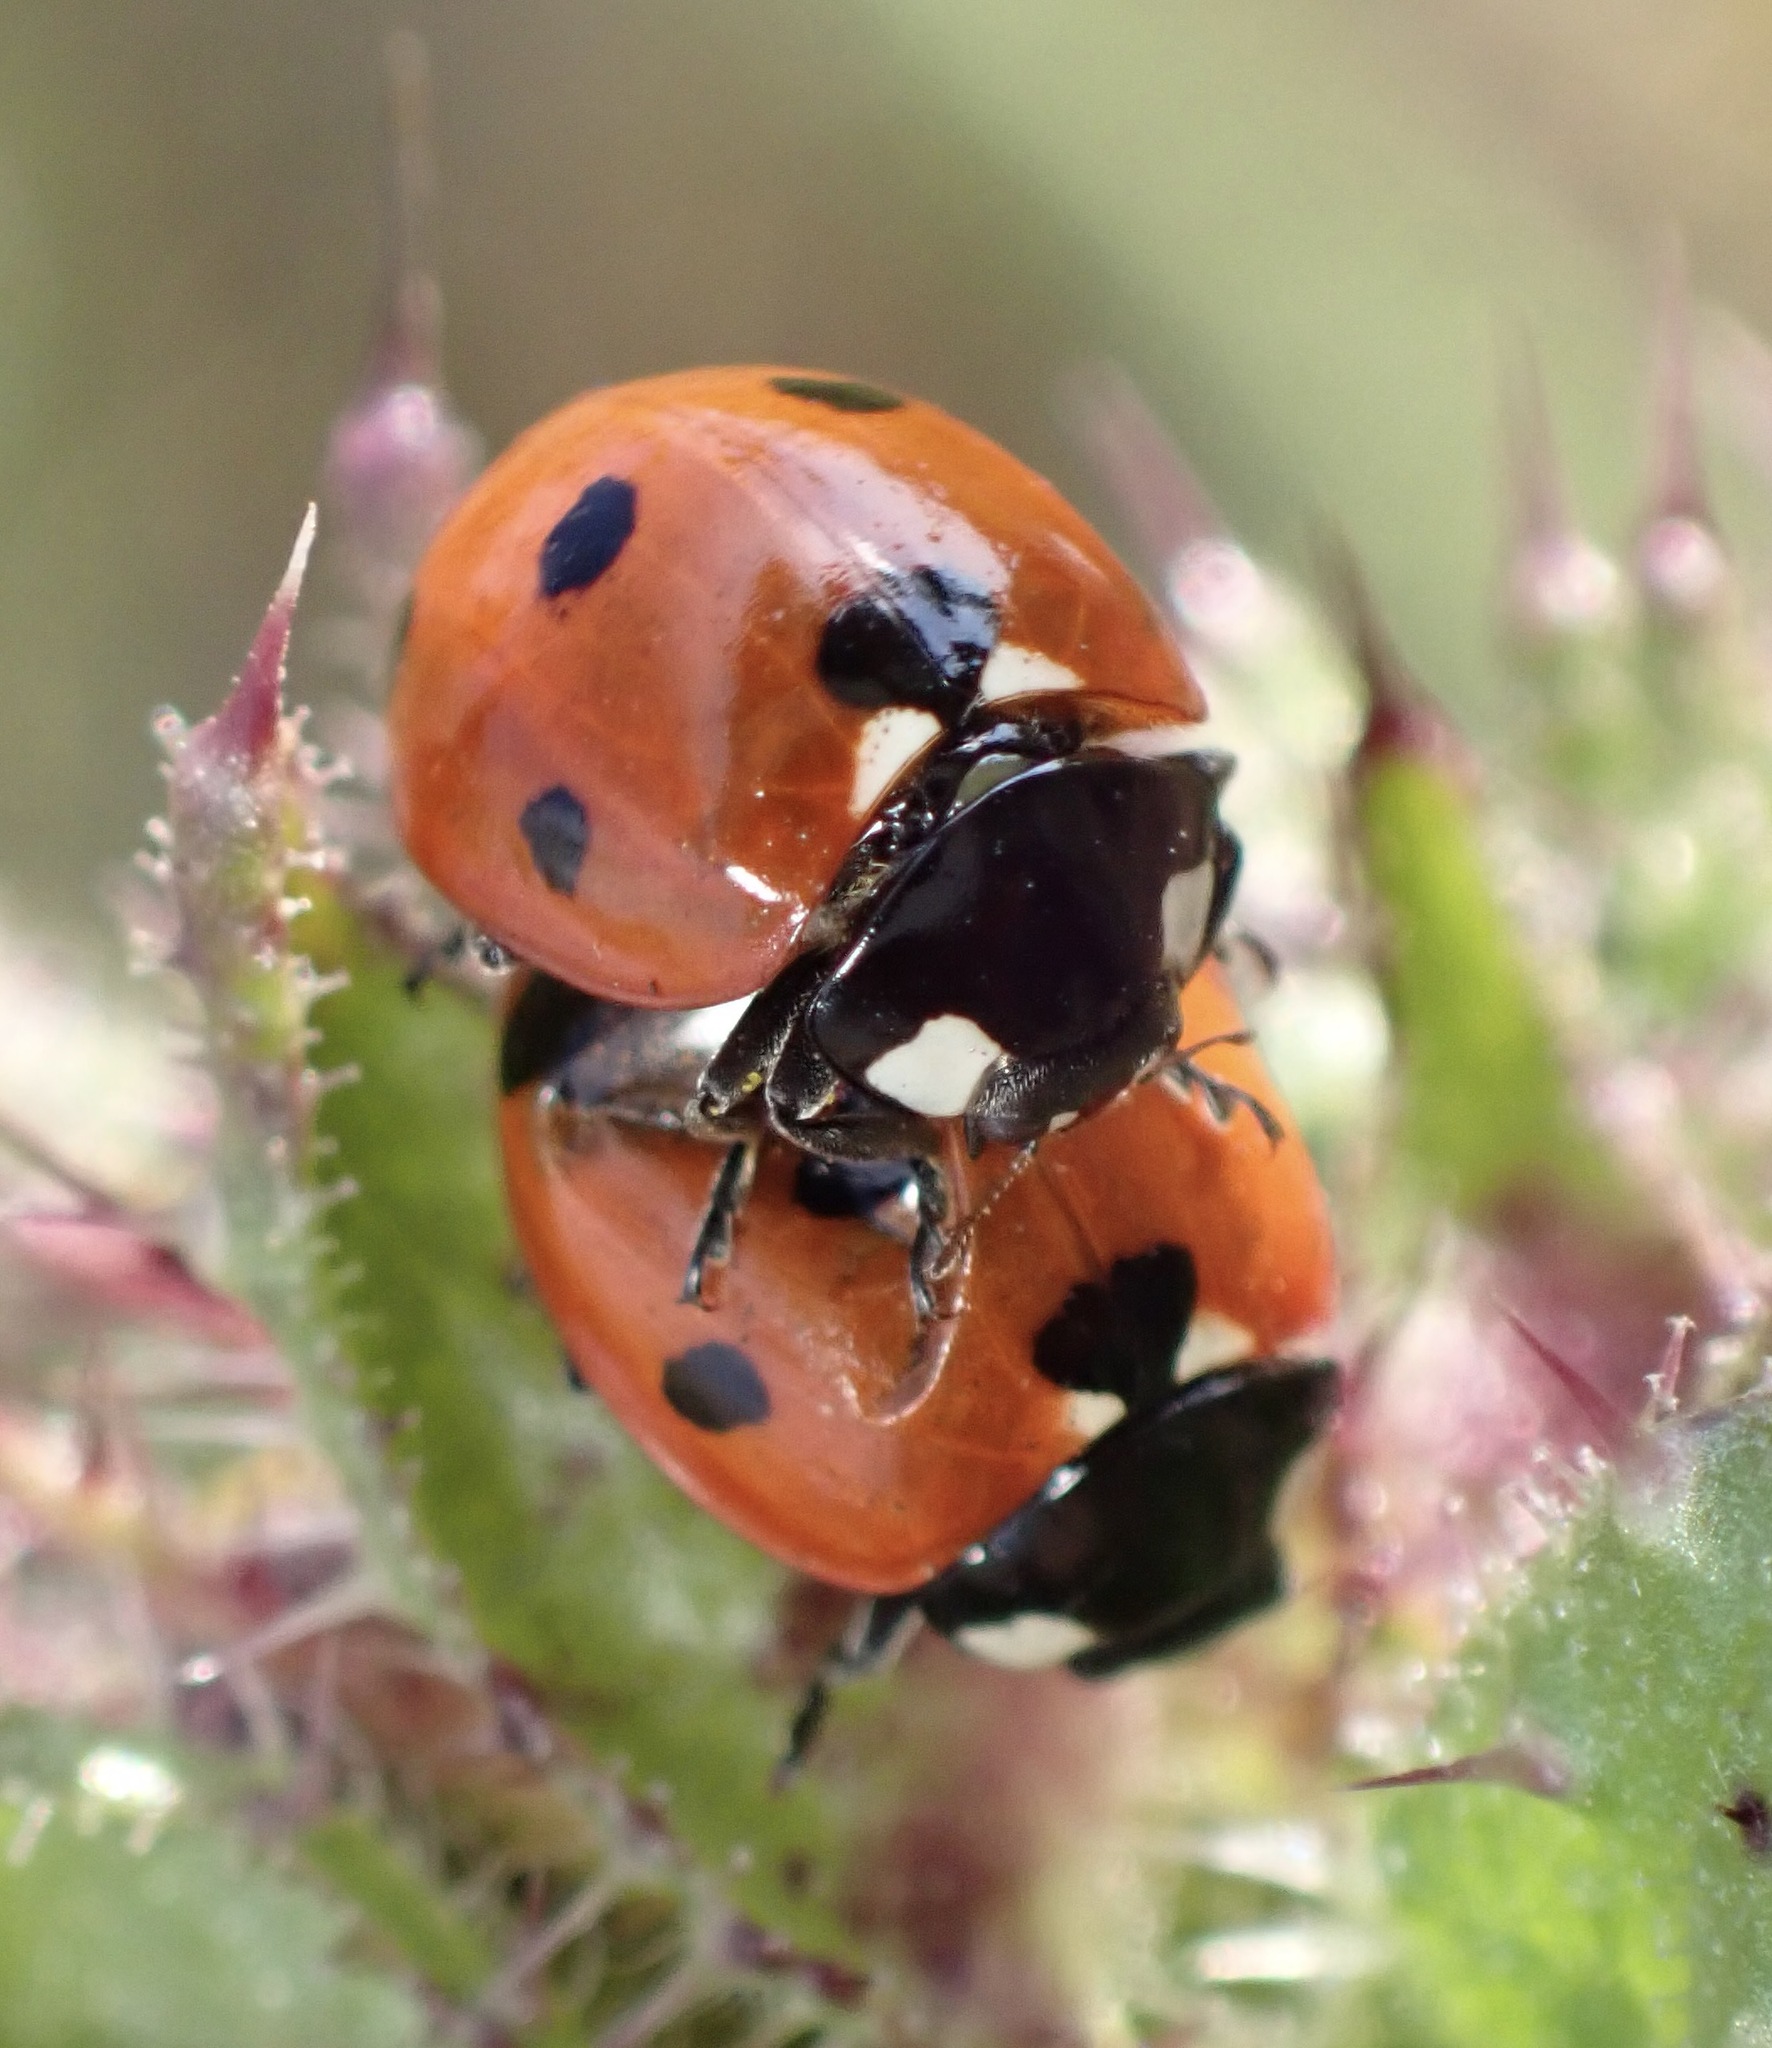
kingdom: Animalia
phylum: Arthropoda
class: Insecta
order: Coleoptera
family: Coccinellidae
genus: Coccinella
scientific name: Coccinella septempunctata
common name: Sevenspotted lady beetle
